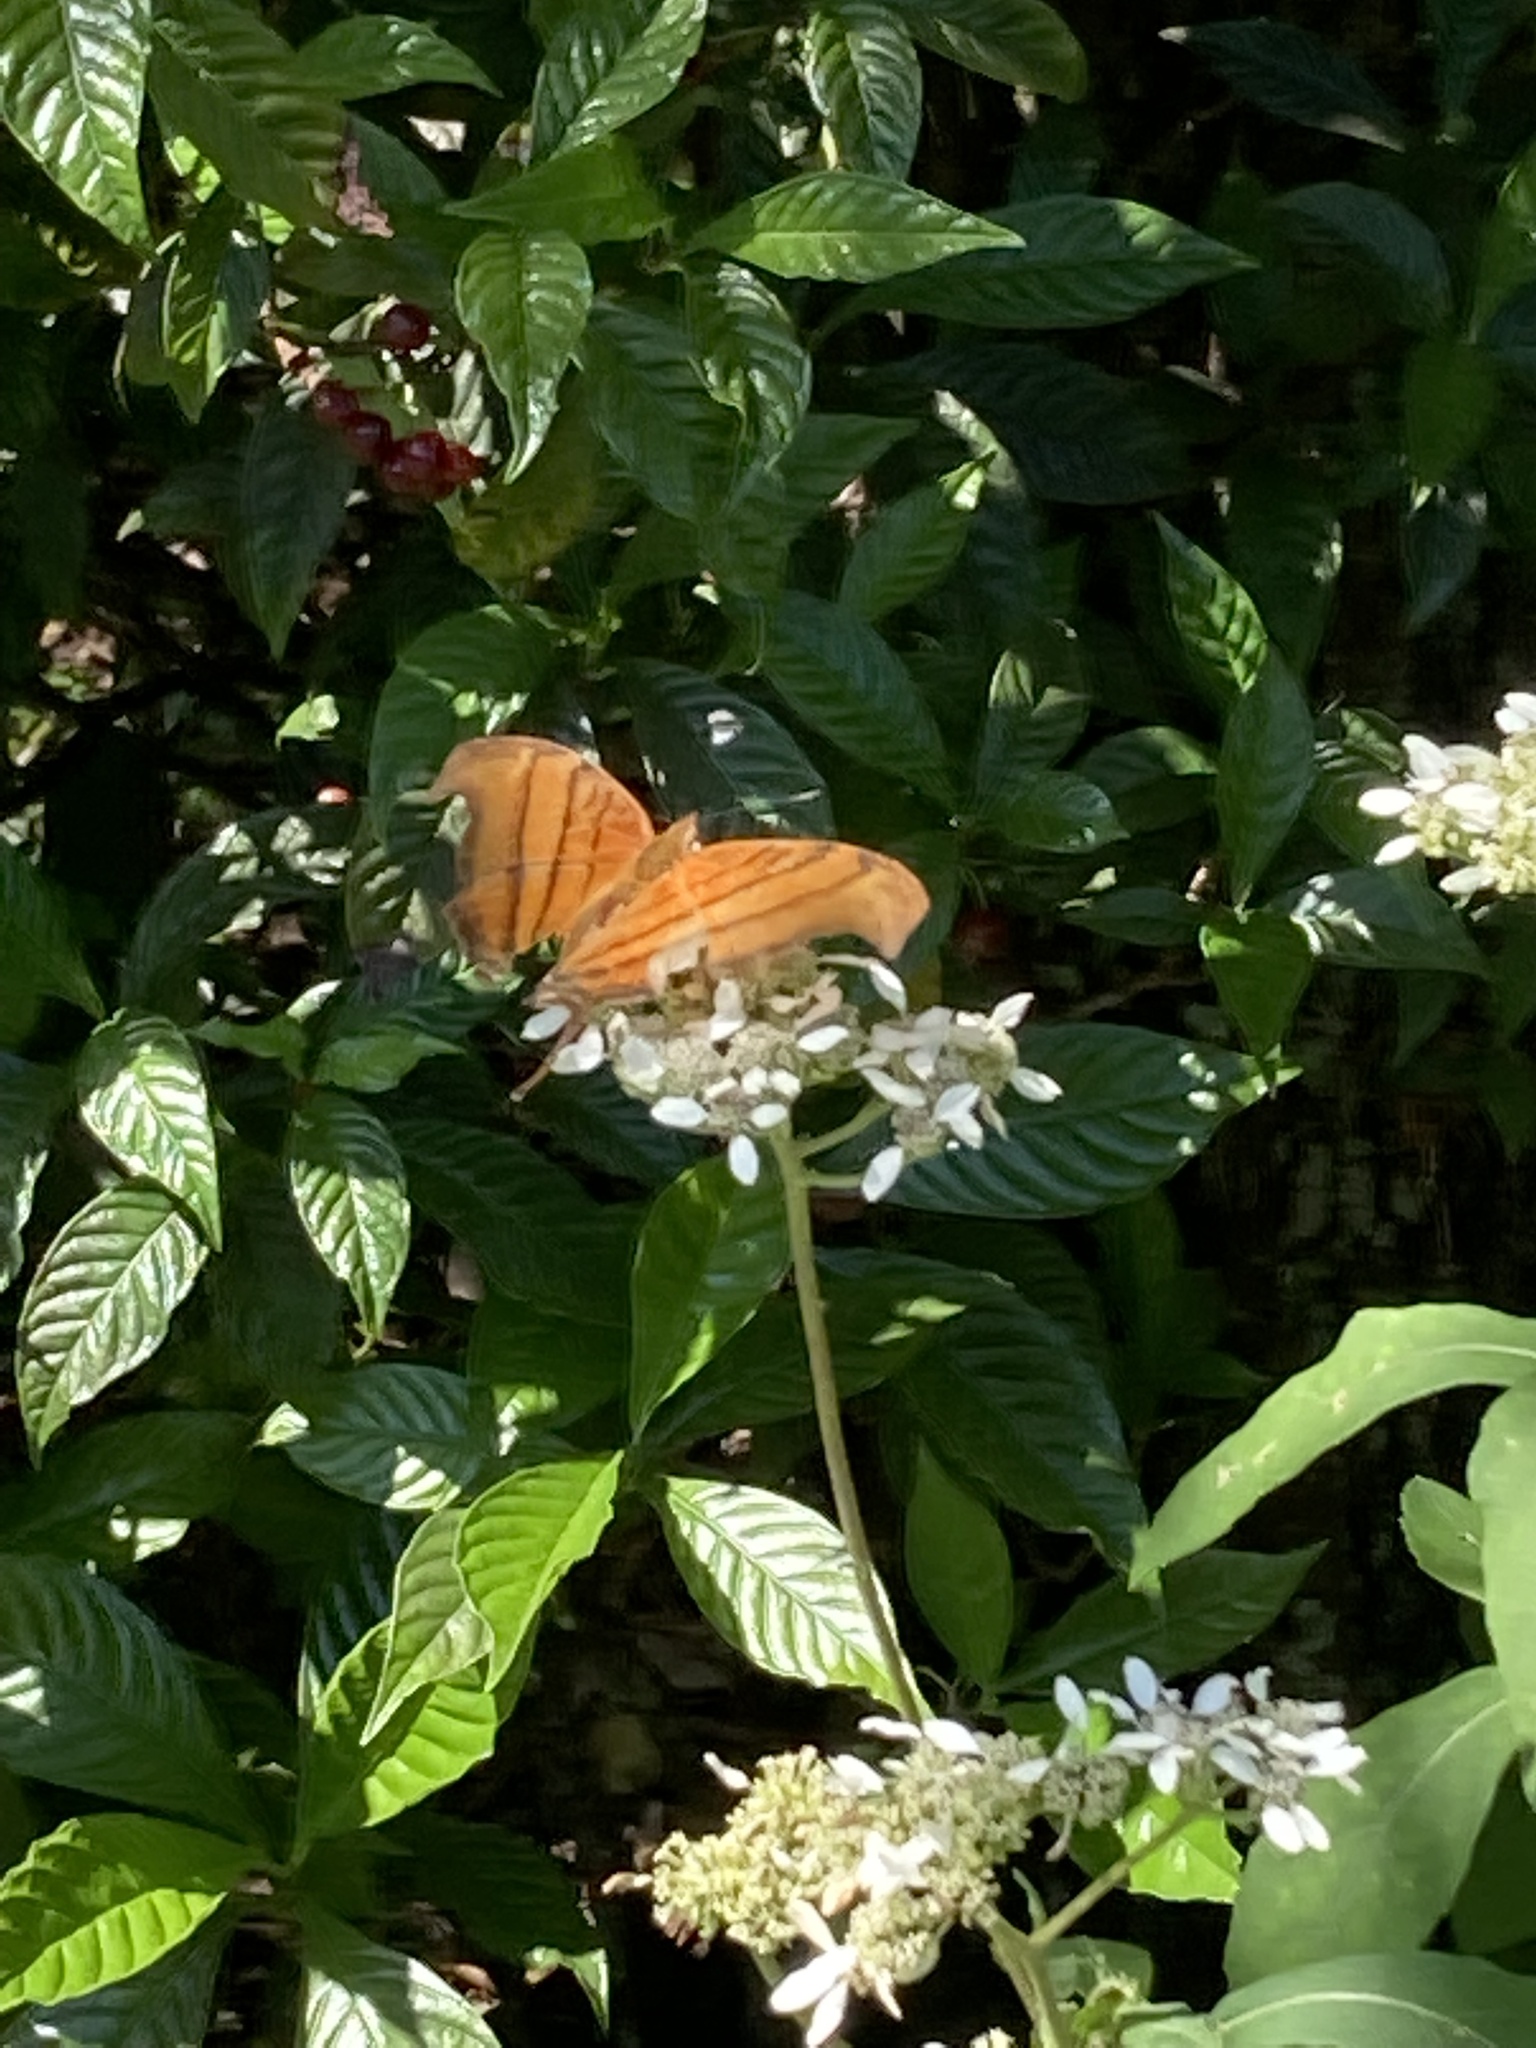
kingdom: Animalia
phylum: Arthropoda
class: Insecta
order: Lepidoptera
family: Nymphalidae
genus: Marpesia
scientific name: Marpesia petreus
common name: Red dagger wing
